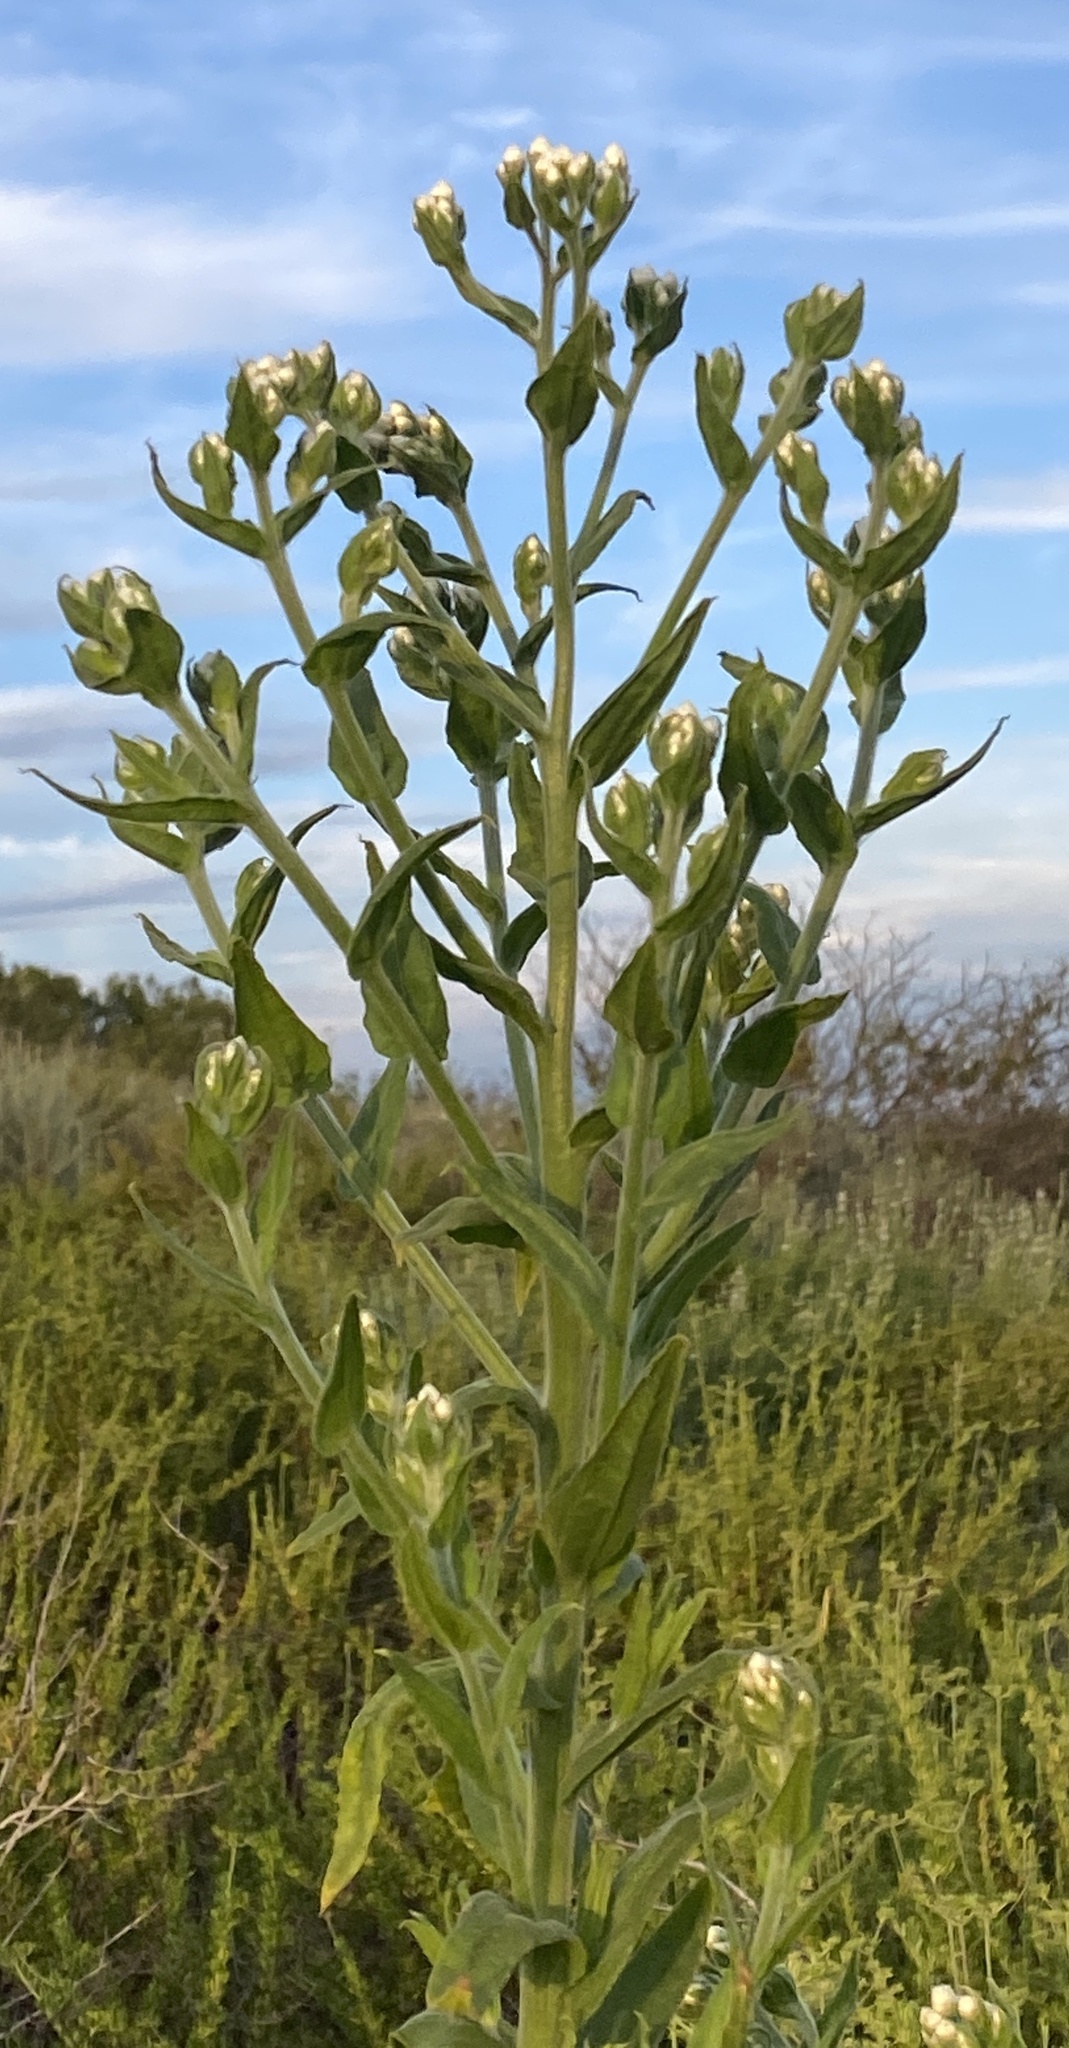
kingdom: Plantae
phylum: Tracheophyta
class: Magnoliopsida
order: Asterales
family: Asteraceae
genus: Pseudognaphalium
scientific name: Pseudognaphalium californicum
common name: California rabbit-tobacco
